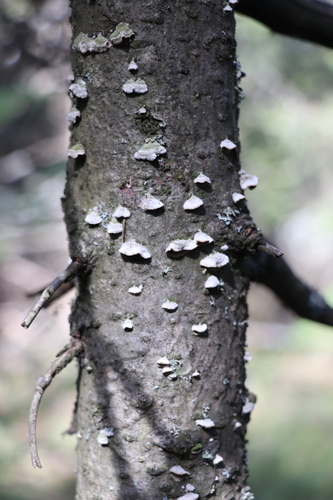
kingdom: Fungi
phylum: Basidiomycota
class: Agaricomycetes
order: Hymenochaetales
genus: Trichaptum
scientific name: Trichaptum fuscoviolaceum
